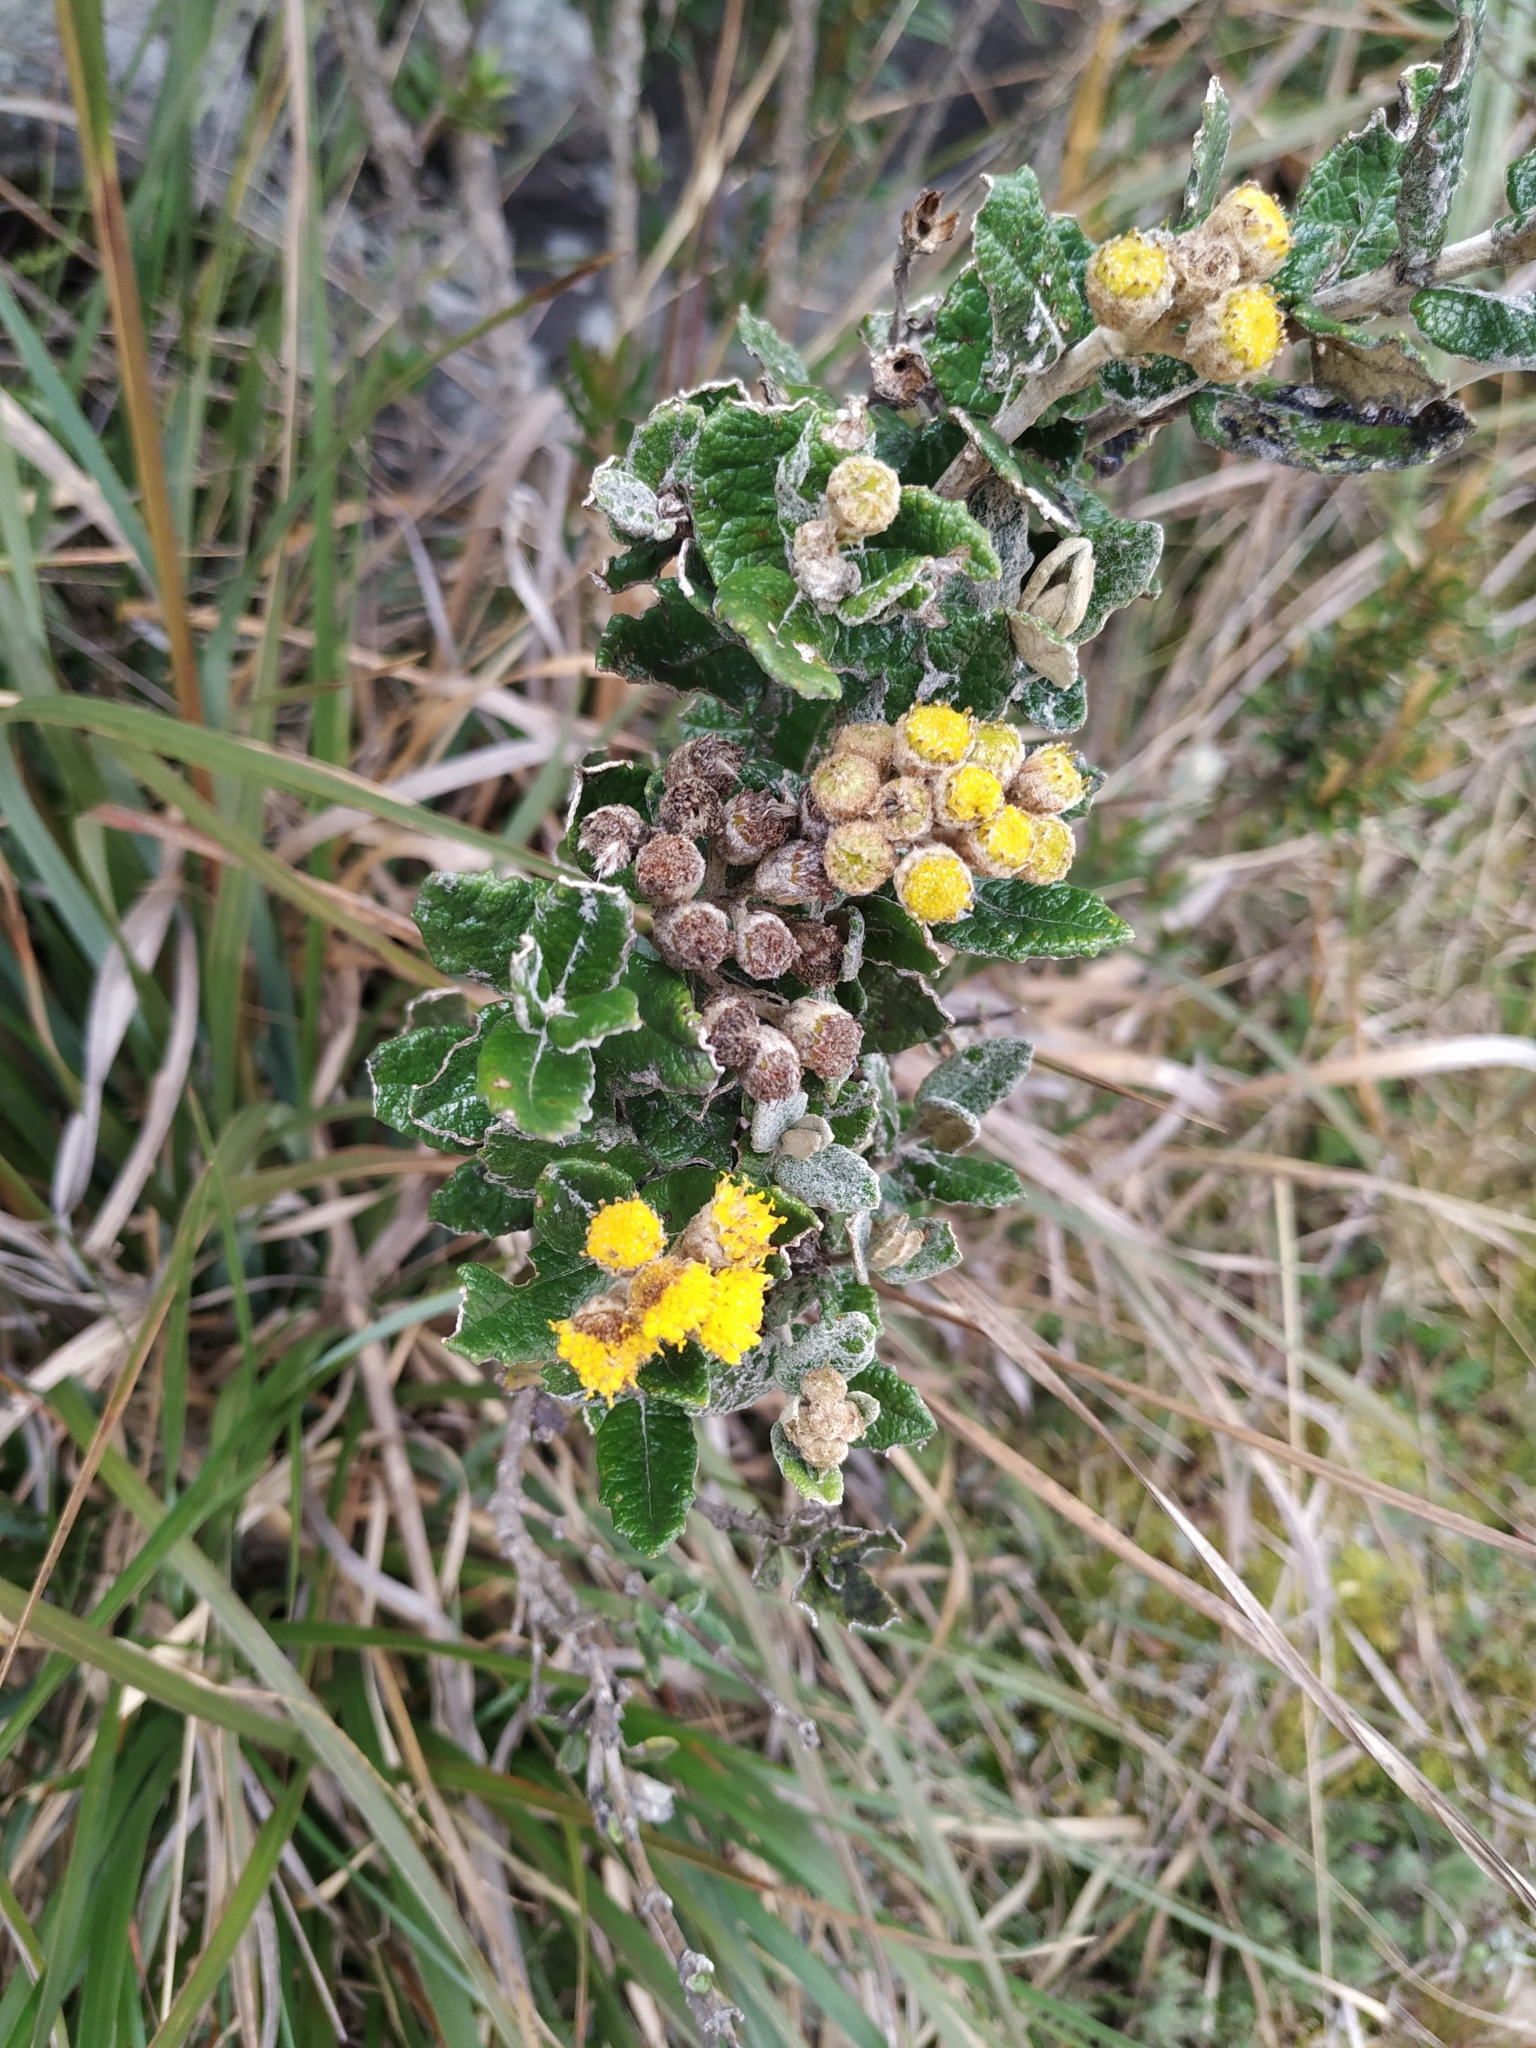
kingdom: Plantae
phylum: Tracheophyta
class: Magnoliopsida
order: Asterales
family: Asteraceae
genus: Scrobicaria
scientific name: Scrobicaria ilicifolia
